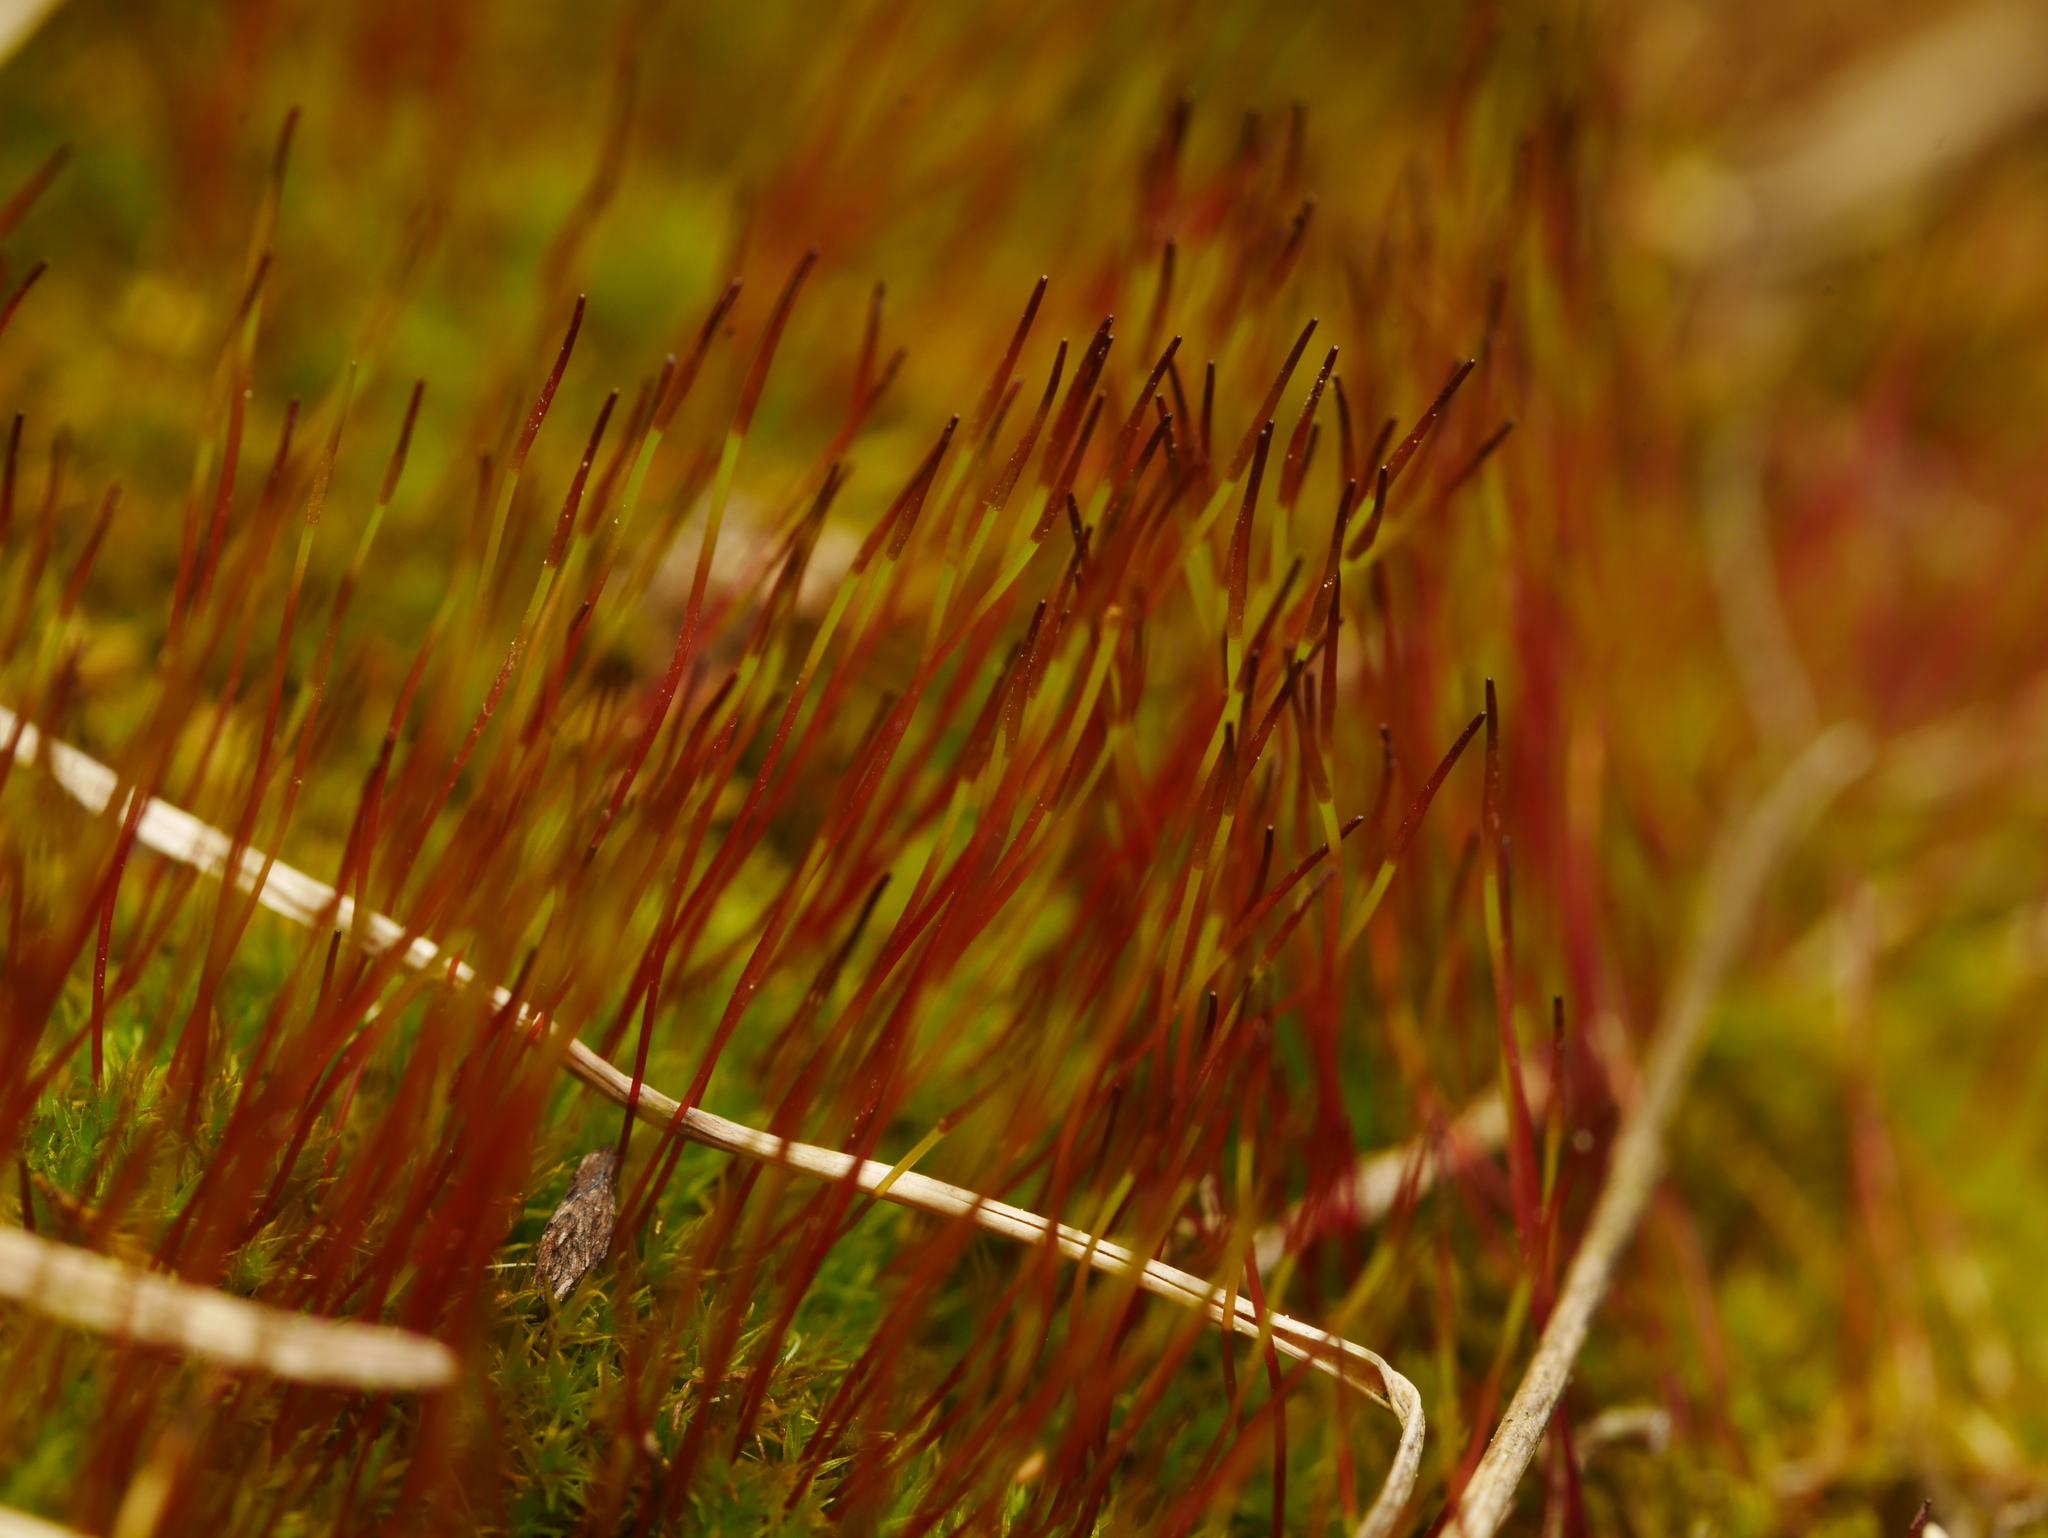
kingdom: Plantae
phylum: Bryophyta
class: Bryopsida
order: Dicranales
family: Ditrichaceae
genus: Ceratodon
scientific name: Ceratodon purpureus
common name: Redshank
